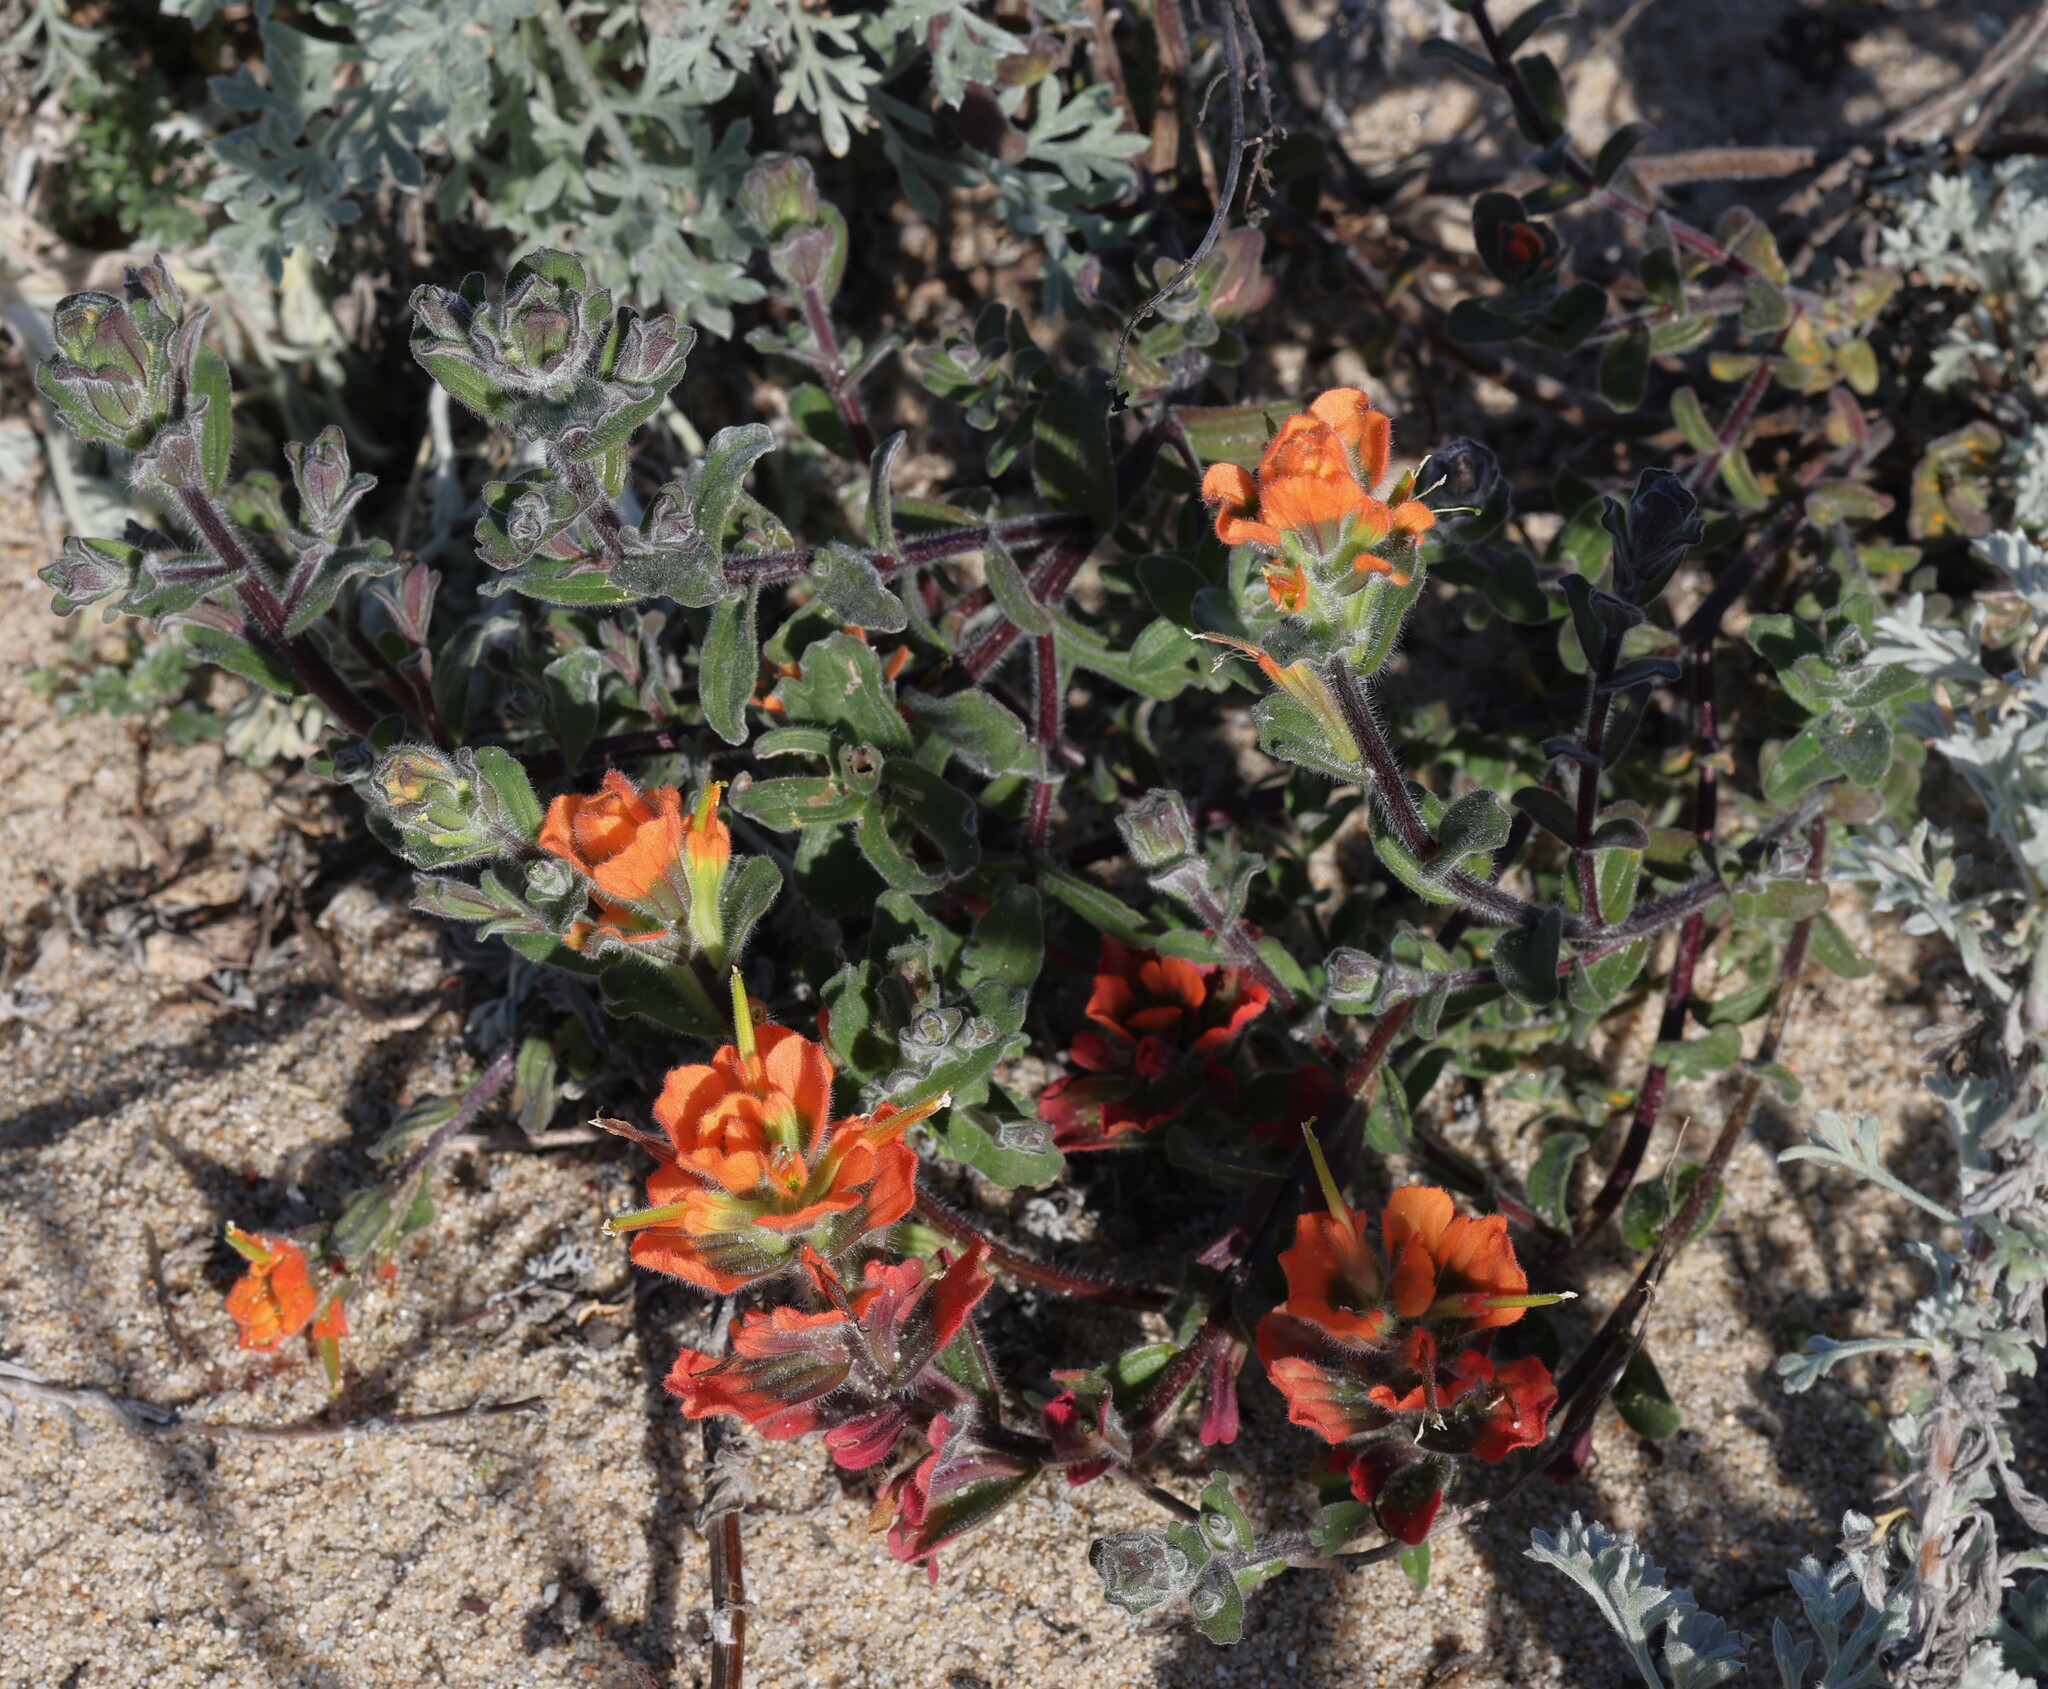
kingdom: Plantae
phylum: Tracheophyta
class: Magnoliopsida
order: Lamiales
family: Orobanchaceae
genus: Castilleja
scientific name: Castilleja latifolia
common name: Monterey indian paintbrush
